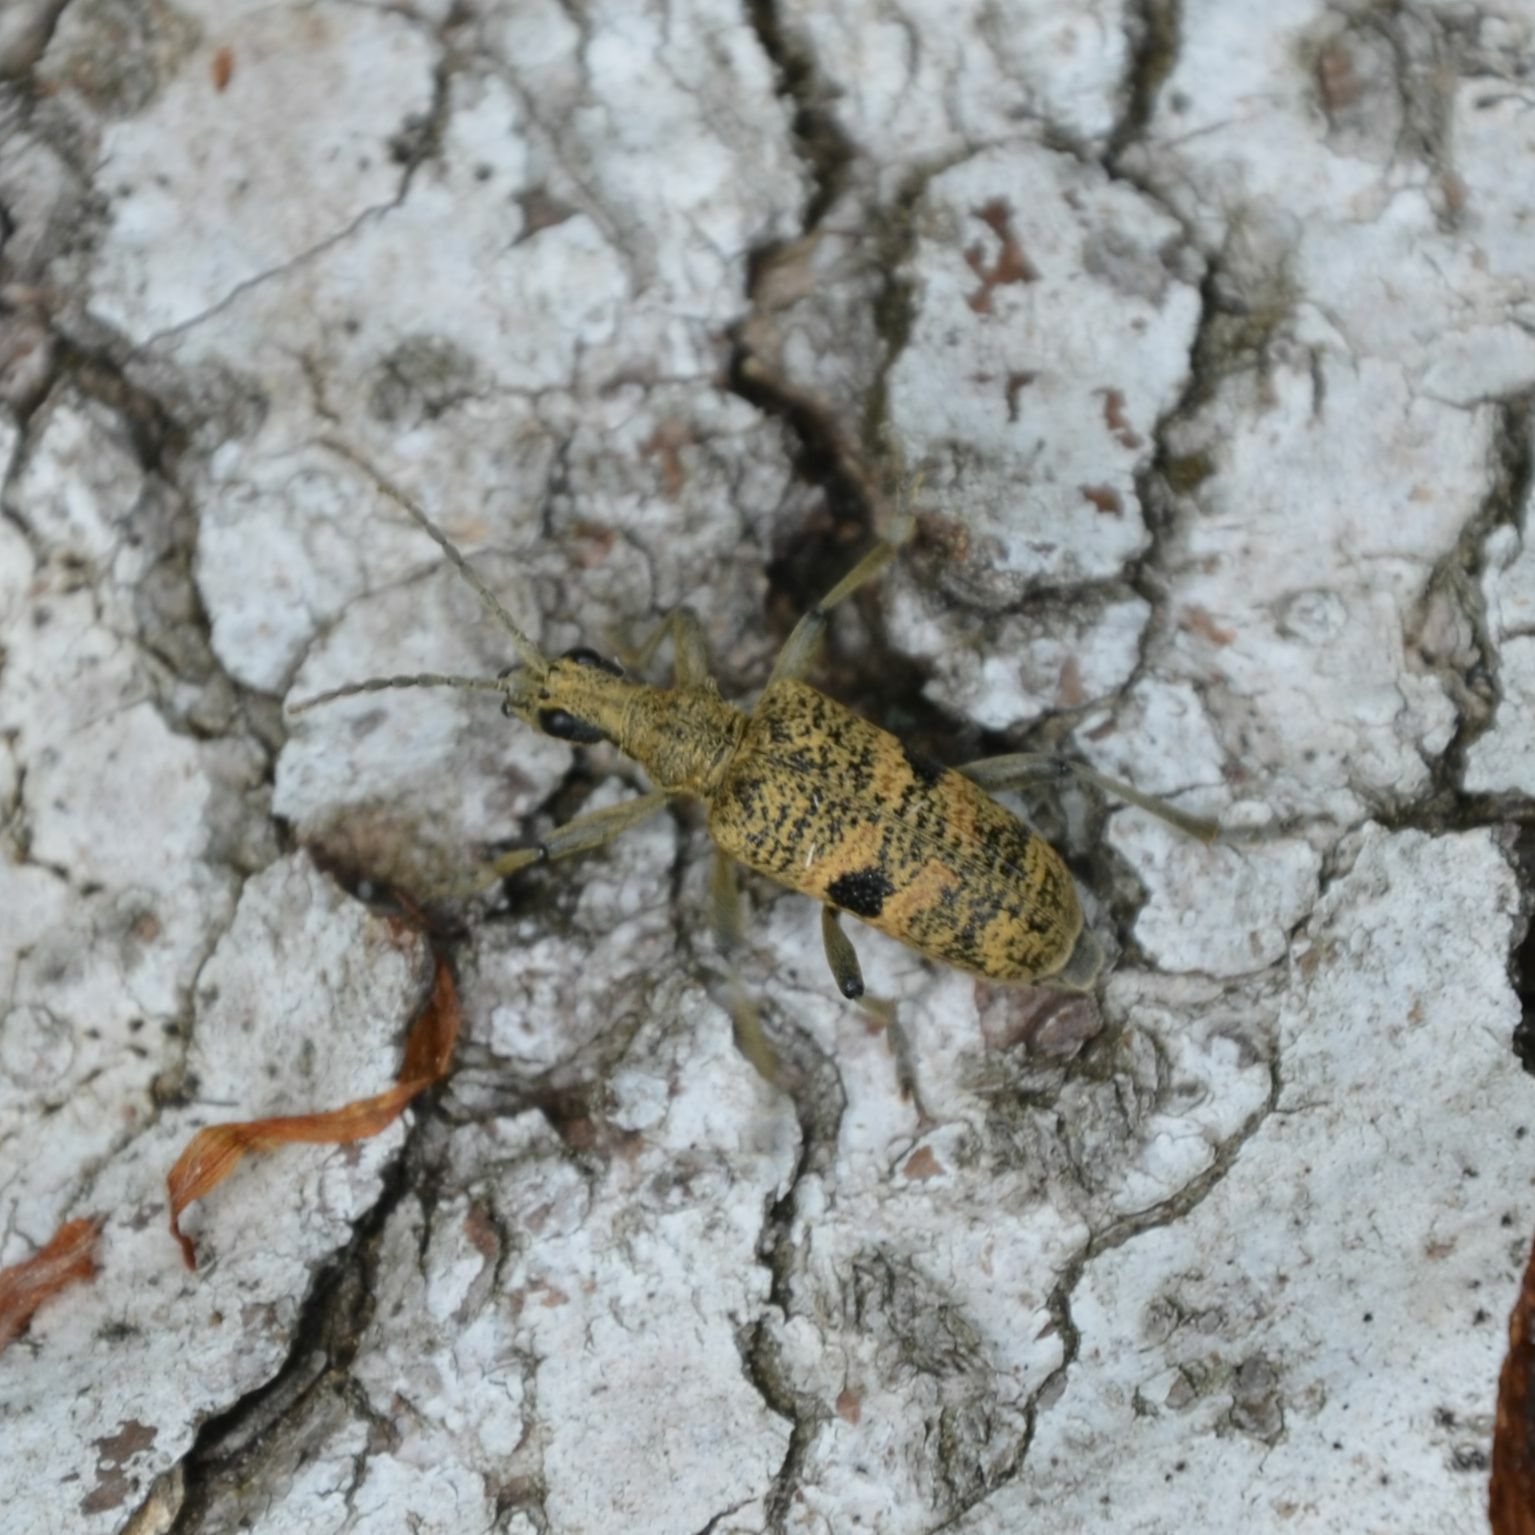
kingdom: Animalia
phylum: Arthropoda
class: Insecta
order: Coleoptera
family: Cerambycidae
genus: Rhagium
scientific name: Rhagium mordax
